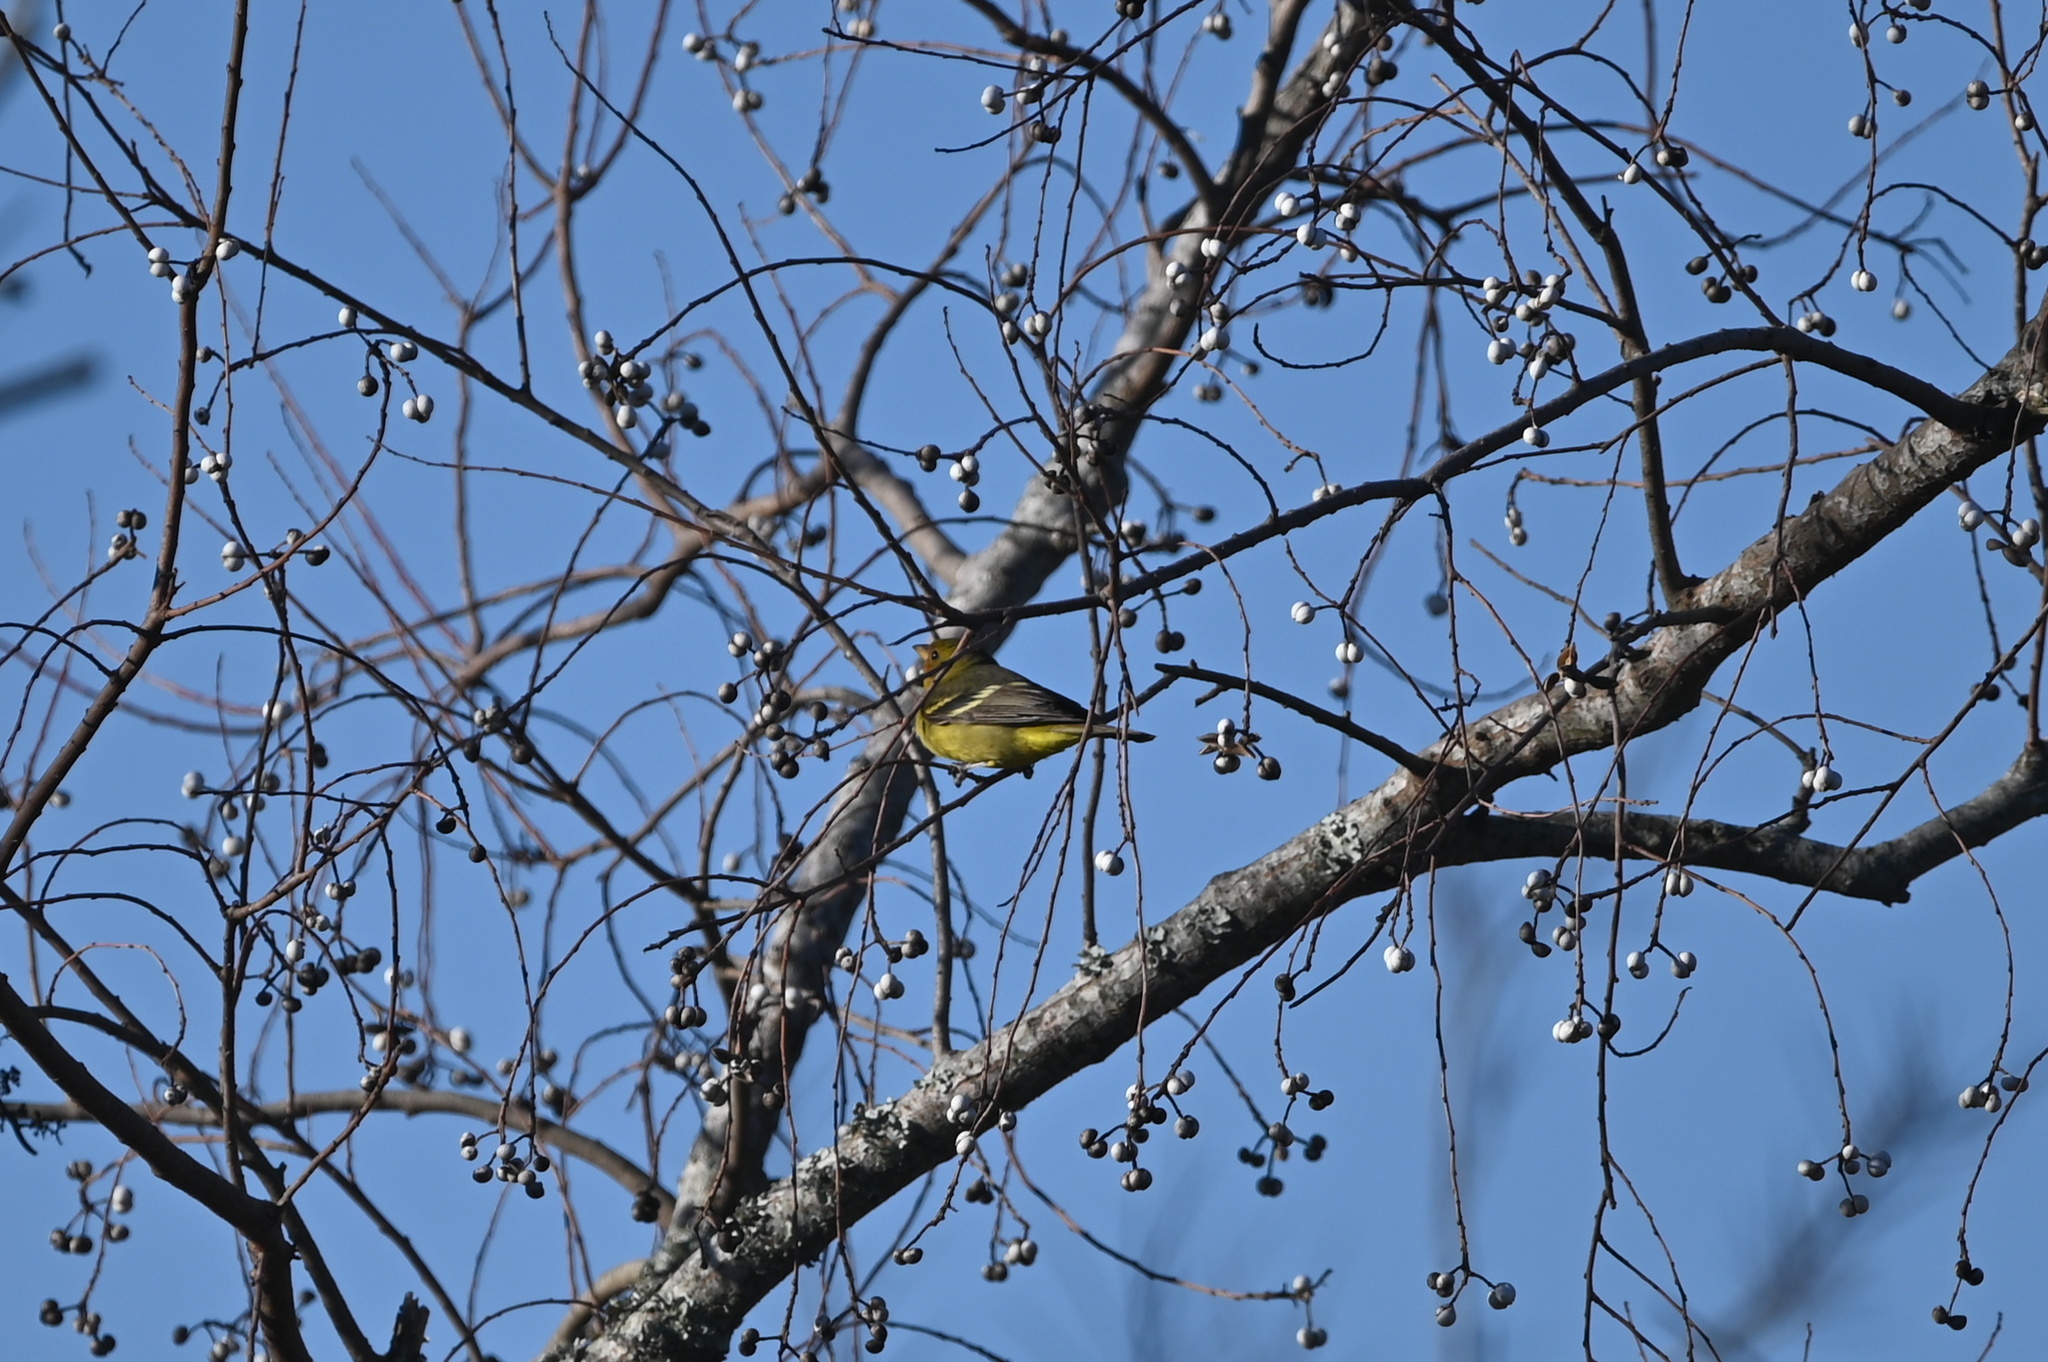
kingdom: Animalia
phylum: Chordata
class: Aves
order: Passeriformes
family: Cardinalidae
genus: Piranga
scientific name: Piranga ludoviciana
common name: Western tanager
